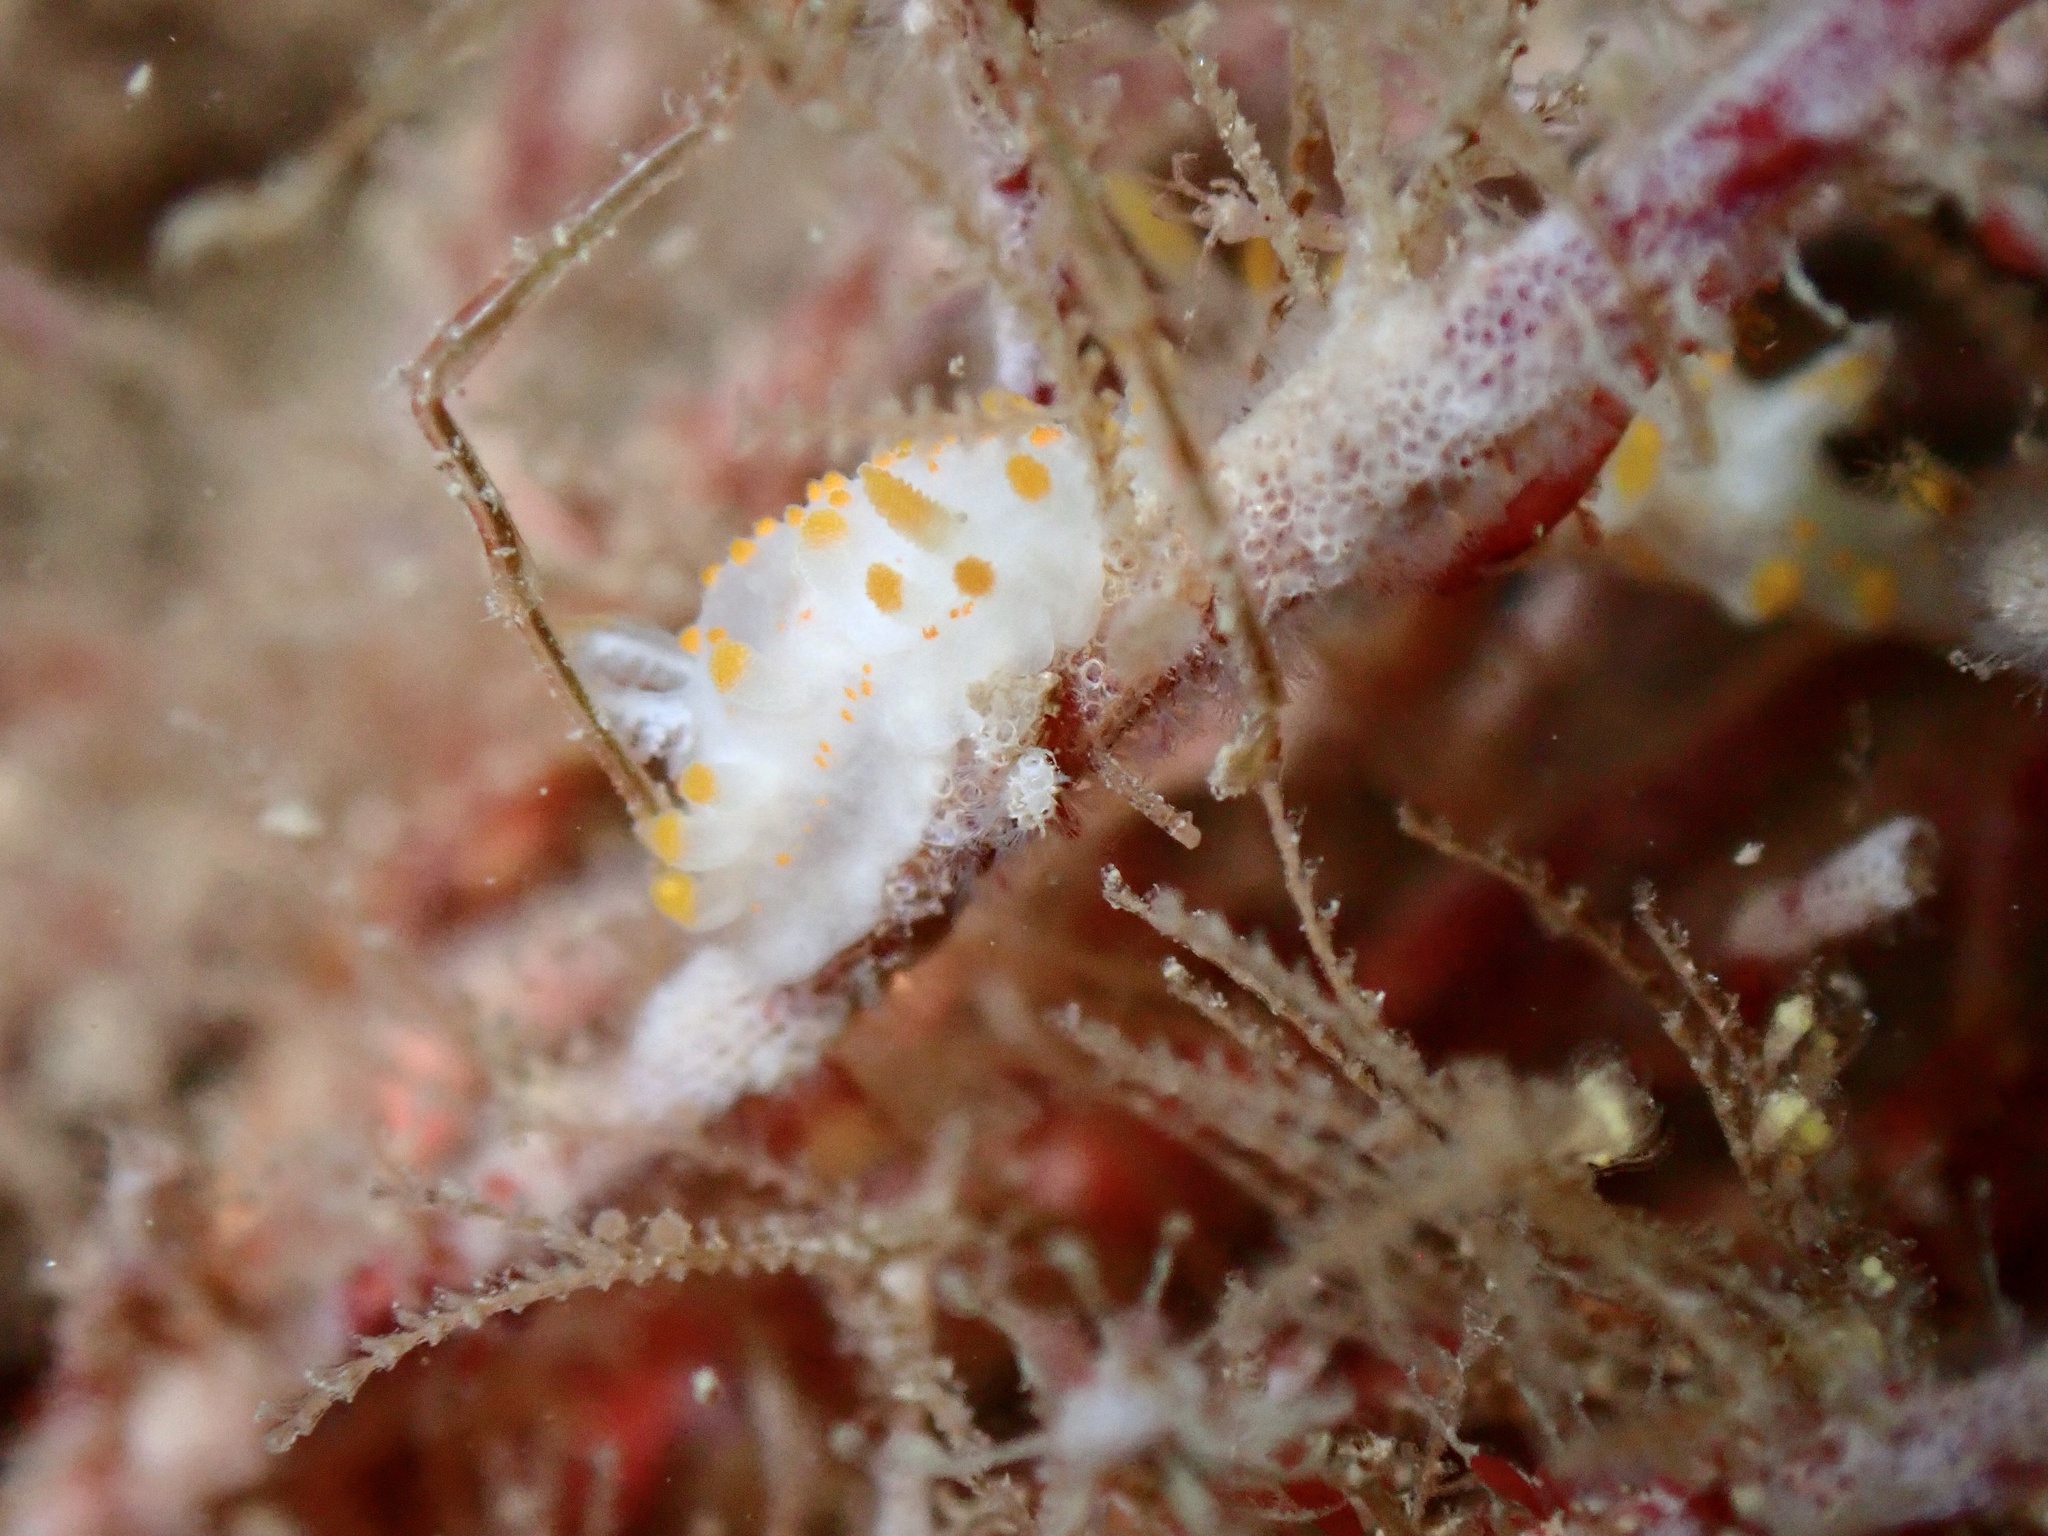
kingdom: Animalia
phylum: Mollusca
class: Gastropoda
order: Nudibranchia
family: Polyceridae
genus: Limacia
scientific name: Limacia clavigera
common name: Orange-clubbed sea slug
